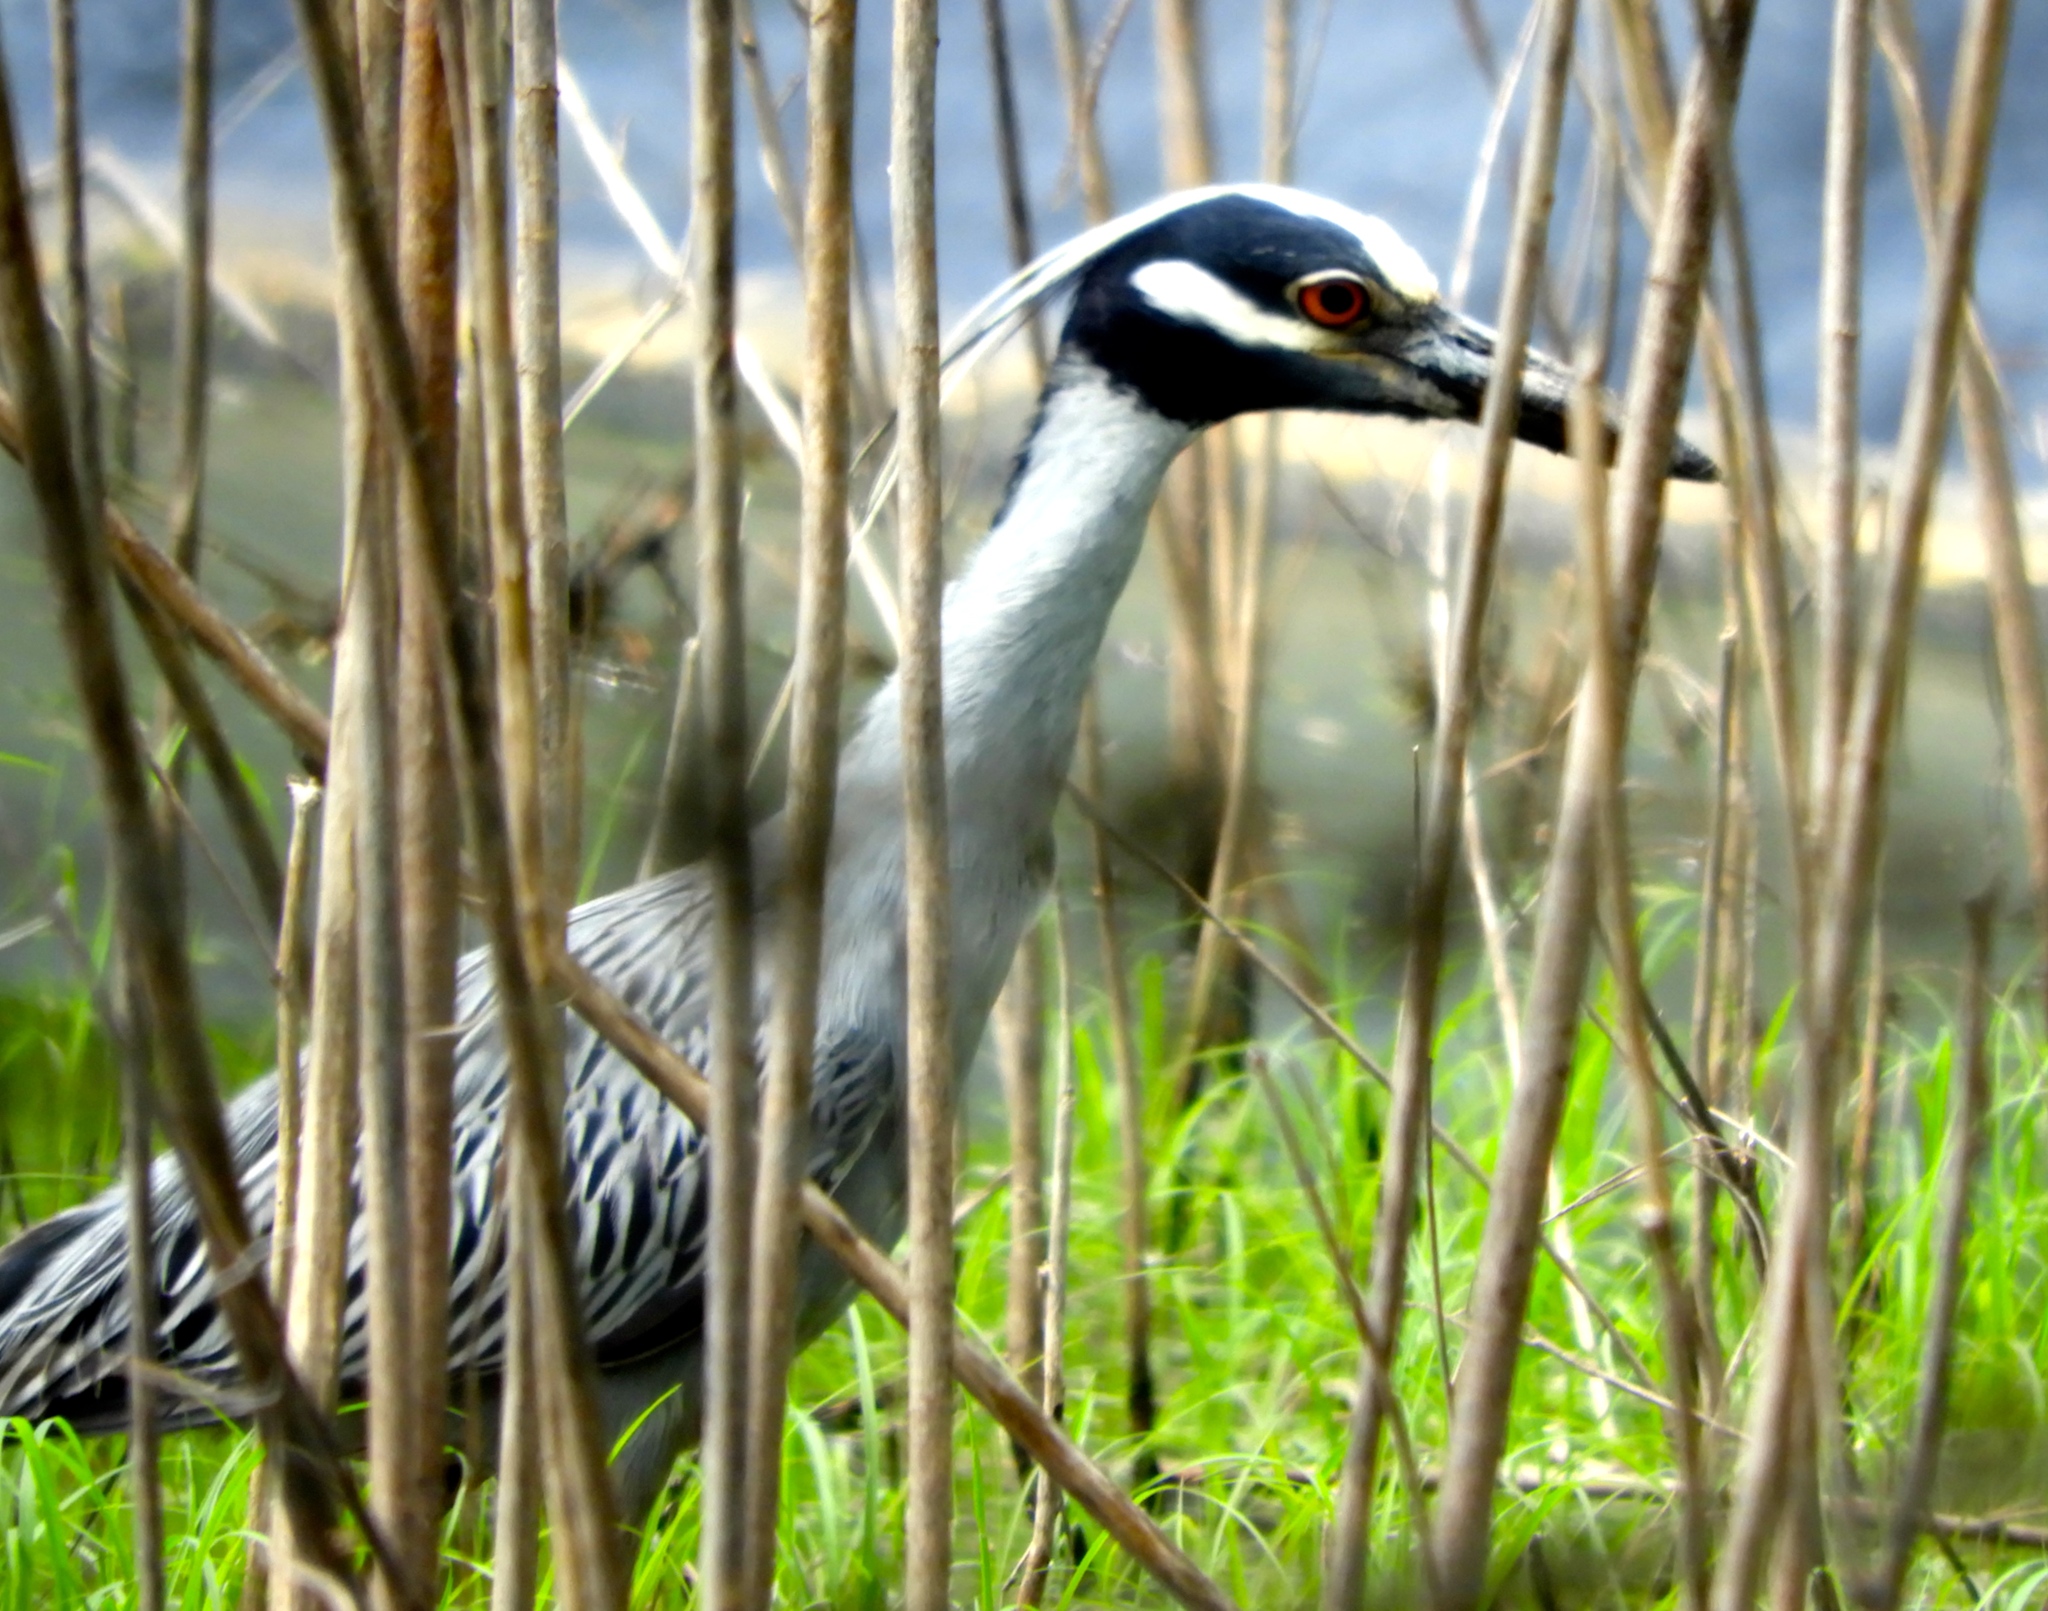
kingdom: Animalia
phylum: Chordata
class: Aves
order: Pelecaniformes
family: Ardeidae
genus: Nyctanassa
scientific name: Nyctanassa violacea
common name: Yellow-crowned night heron
